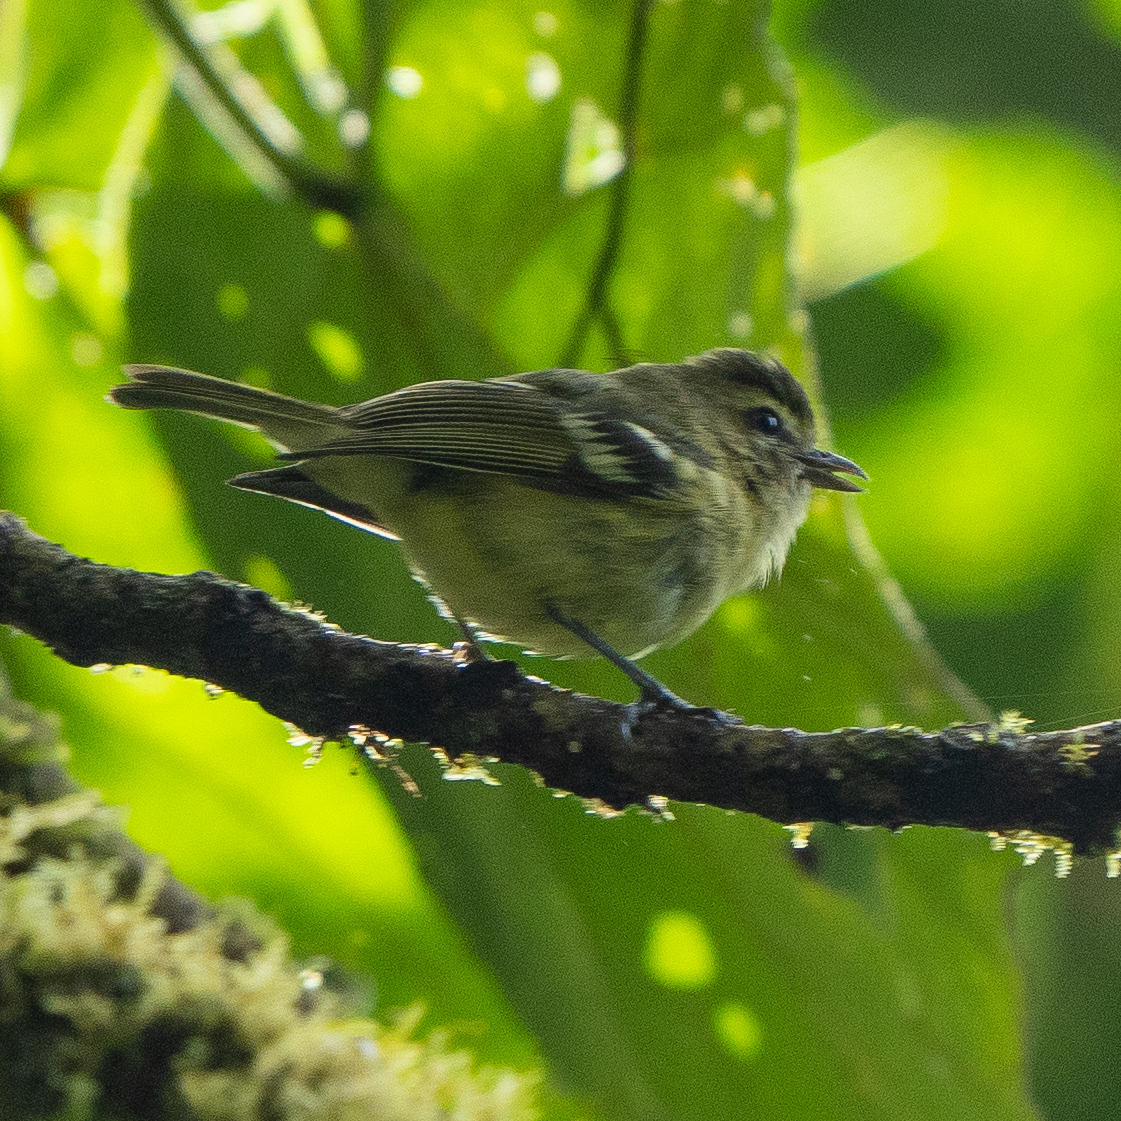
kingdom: Animalia
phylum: Chordata
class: Aves
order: Passeriformes
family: Vireonidae
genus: Vireo
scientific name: Vireo carmioli
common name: Yellow-winged vireo
